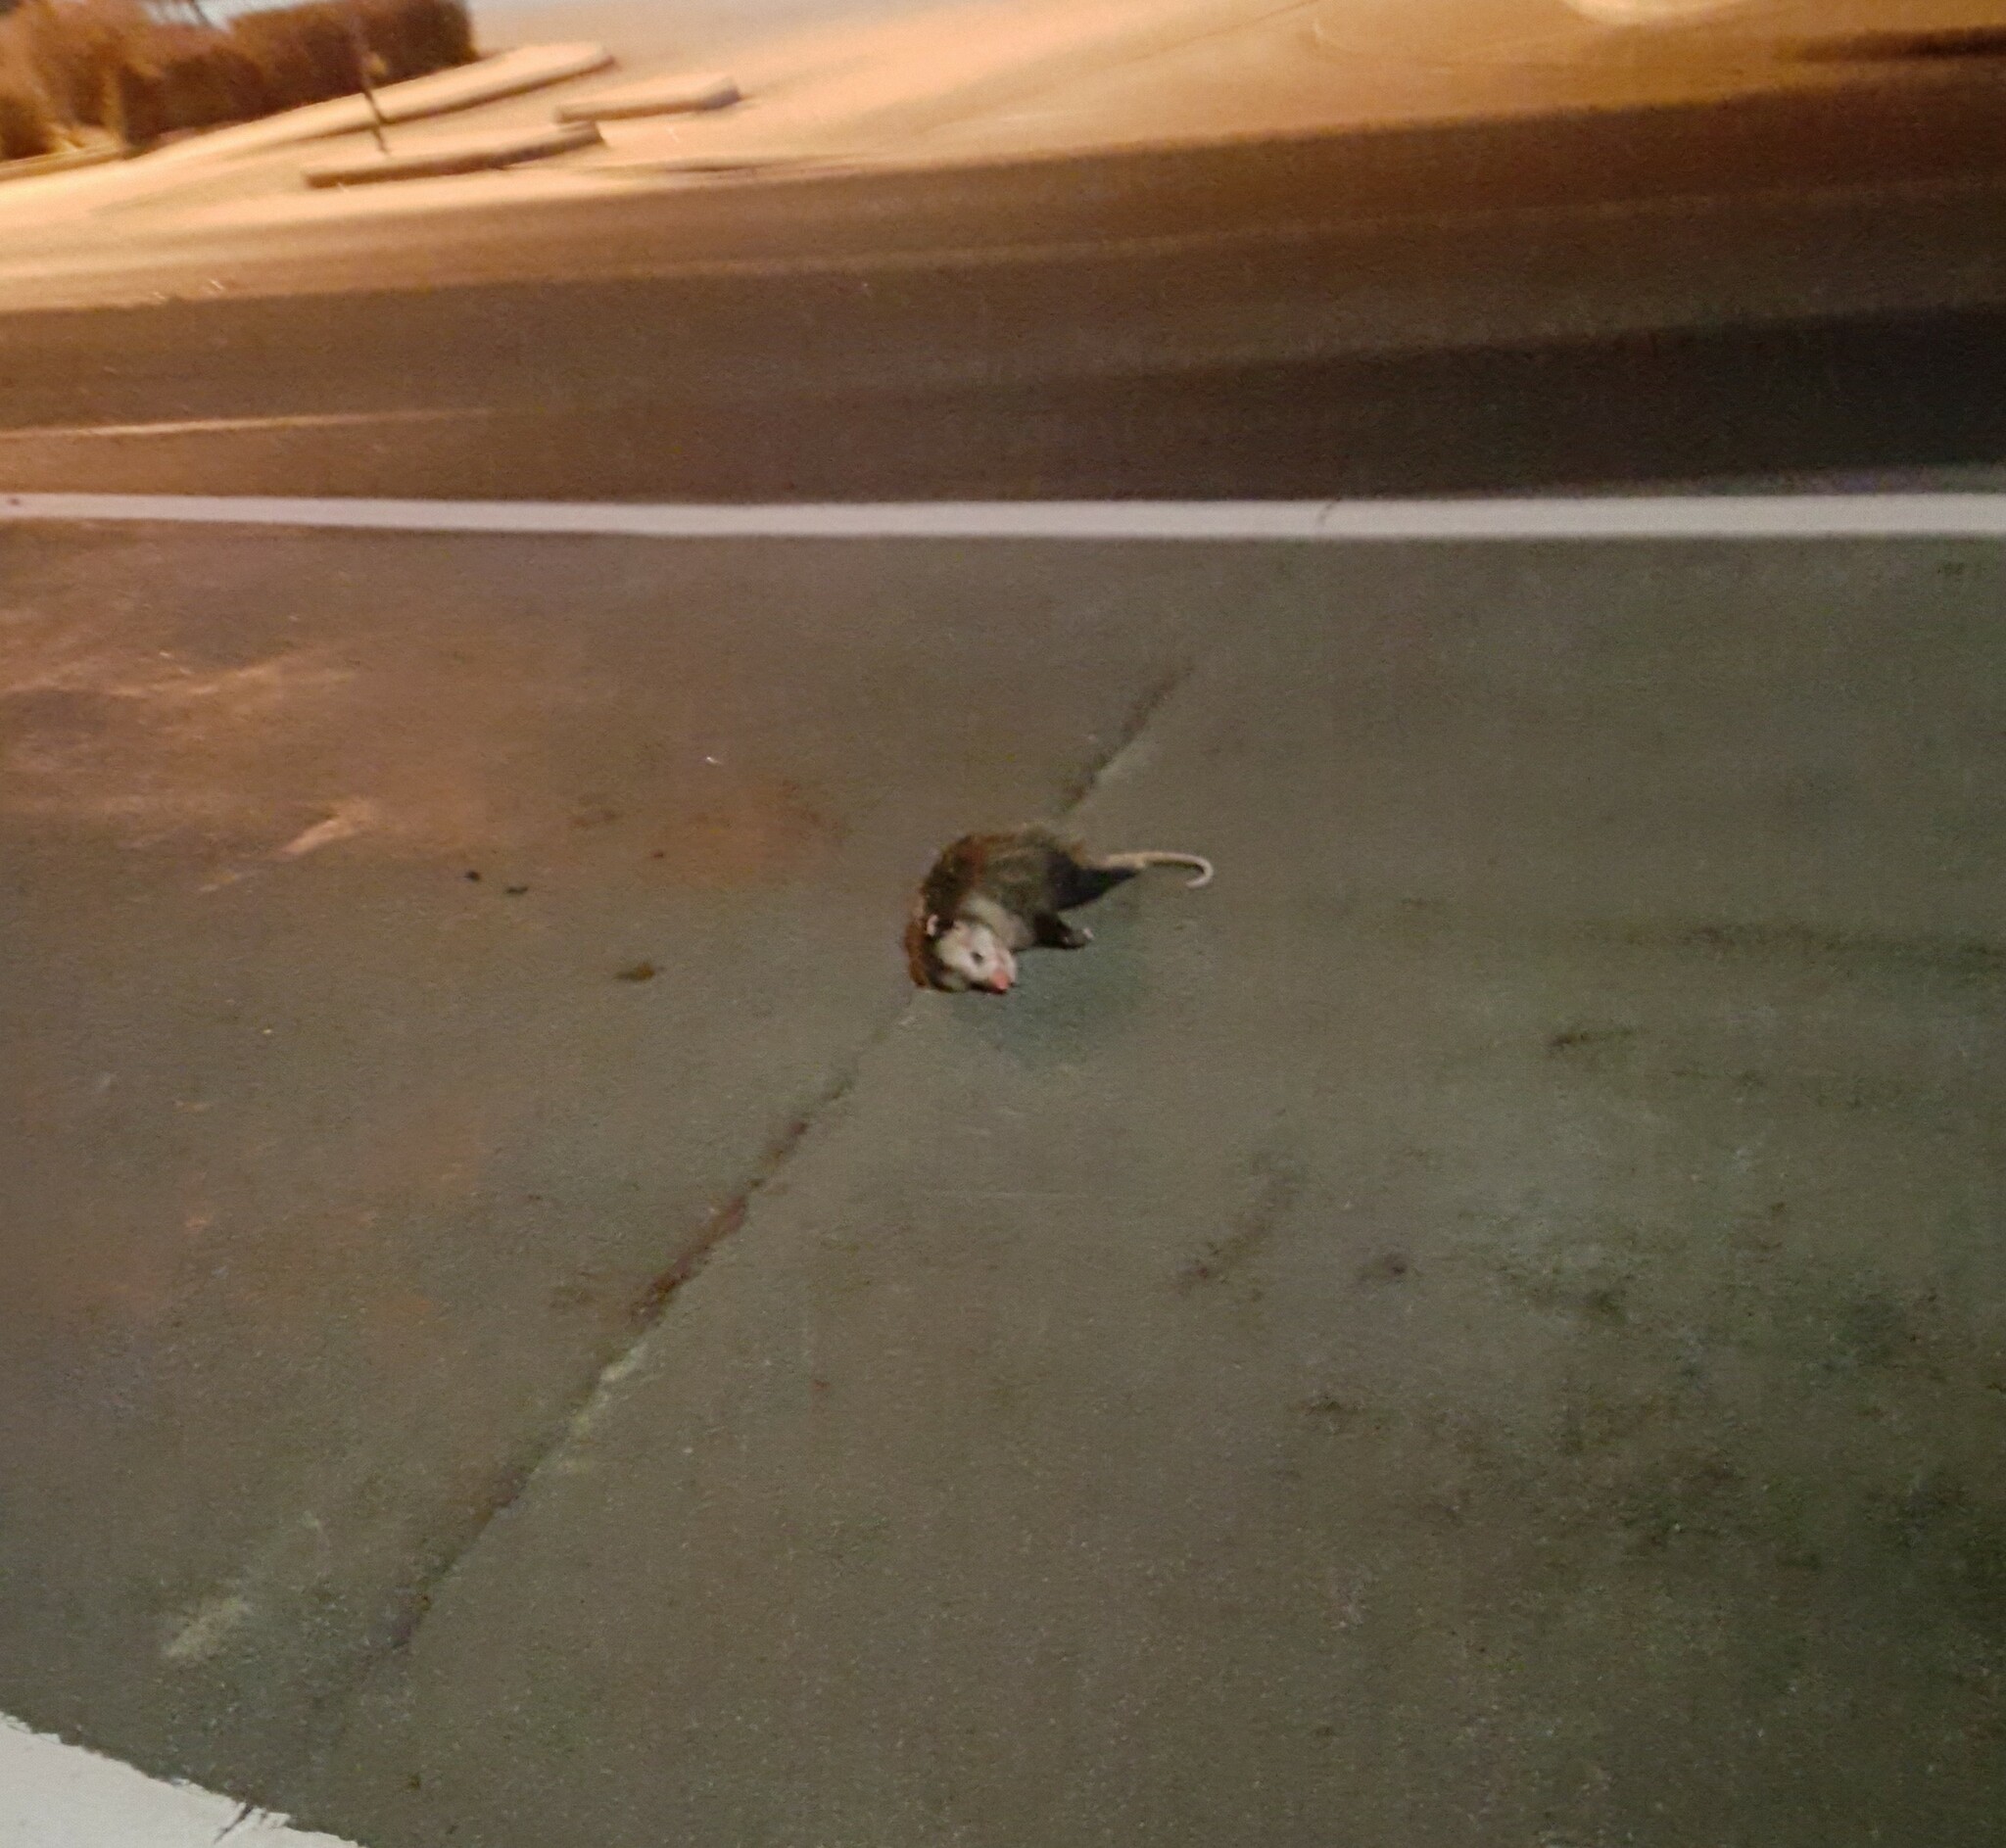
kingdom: Animalia
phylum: Chordata
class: Mammalia
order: Didelphimorphia
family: Didelphidae
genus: Didelphis
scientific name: Didelphis virginiana
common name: Virginia opossum
